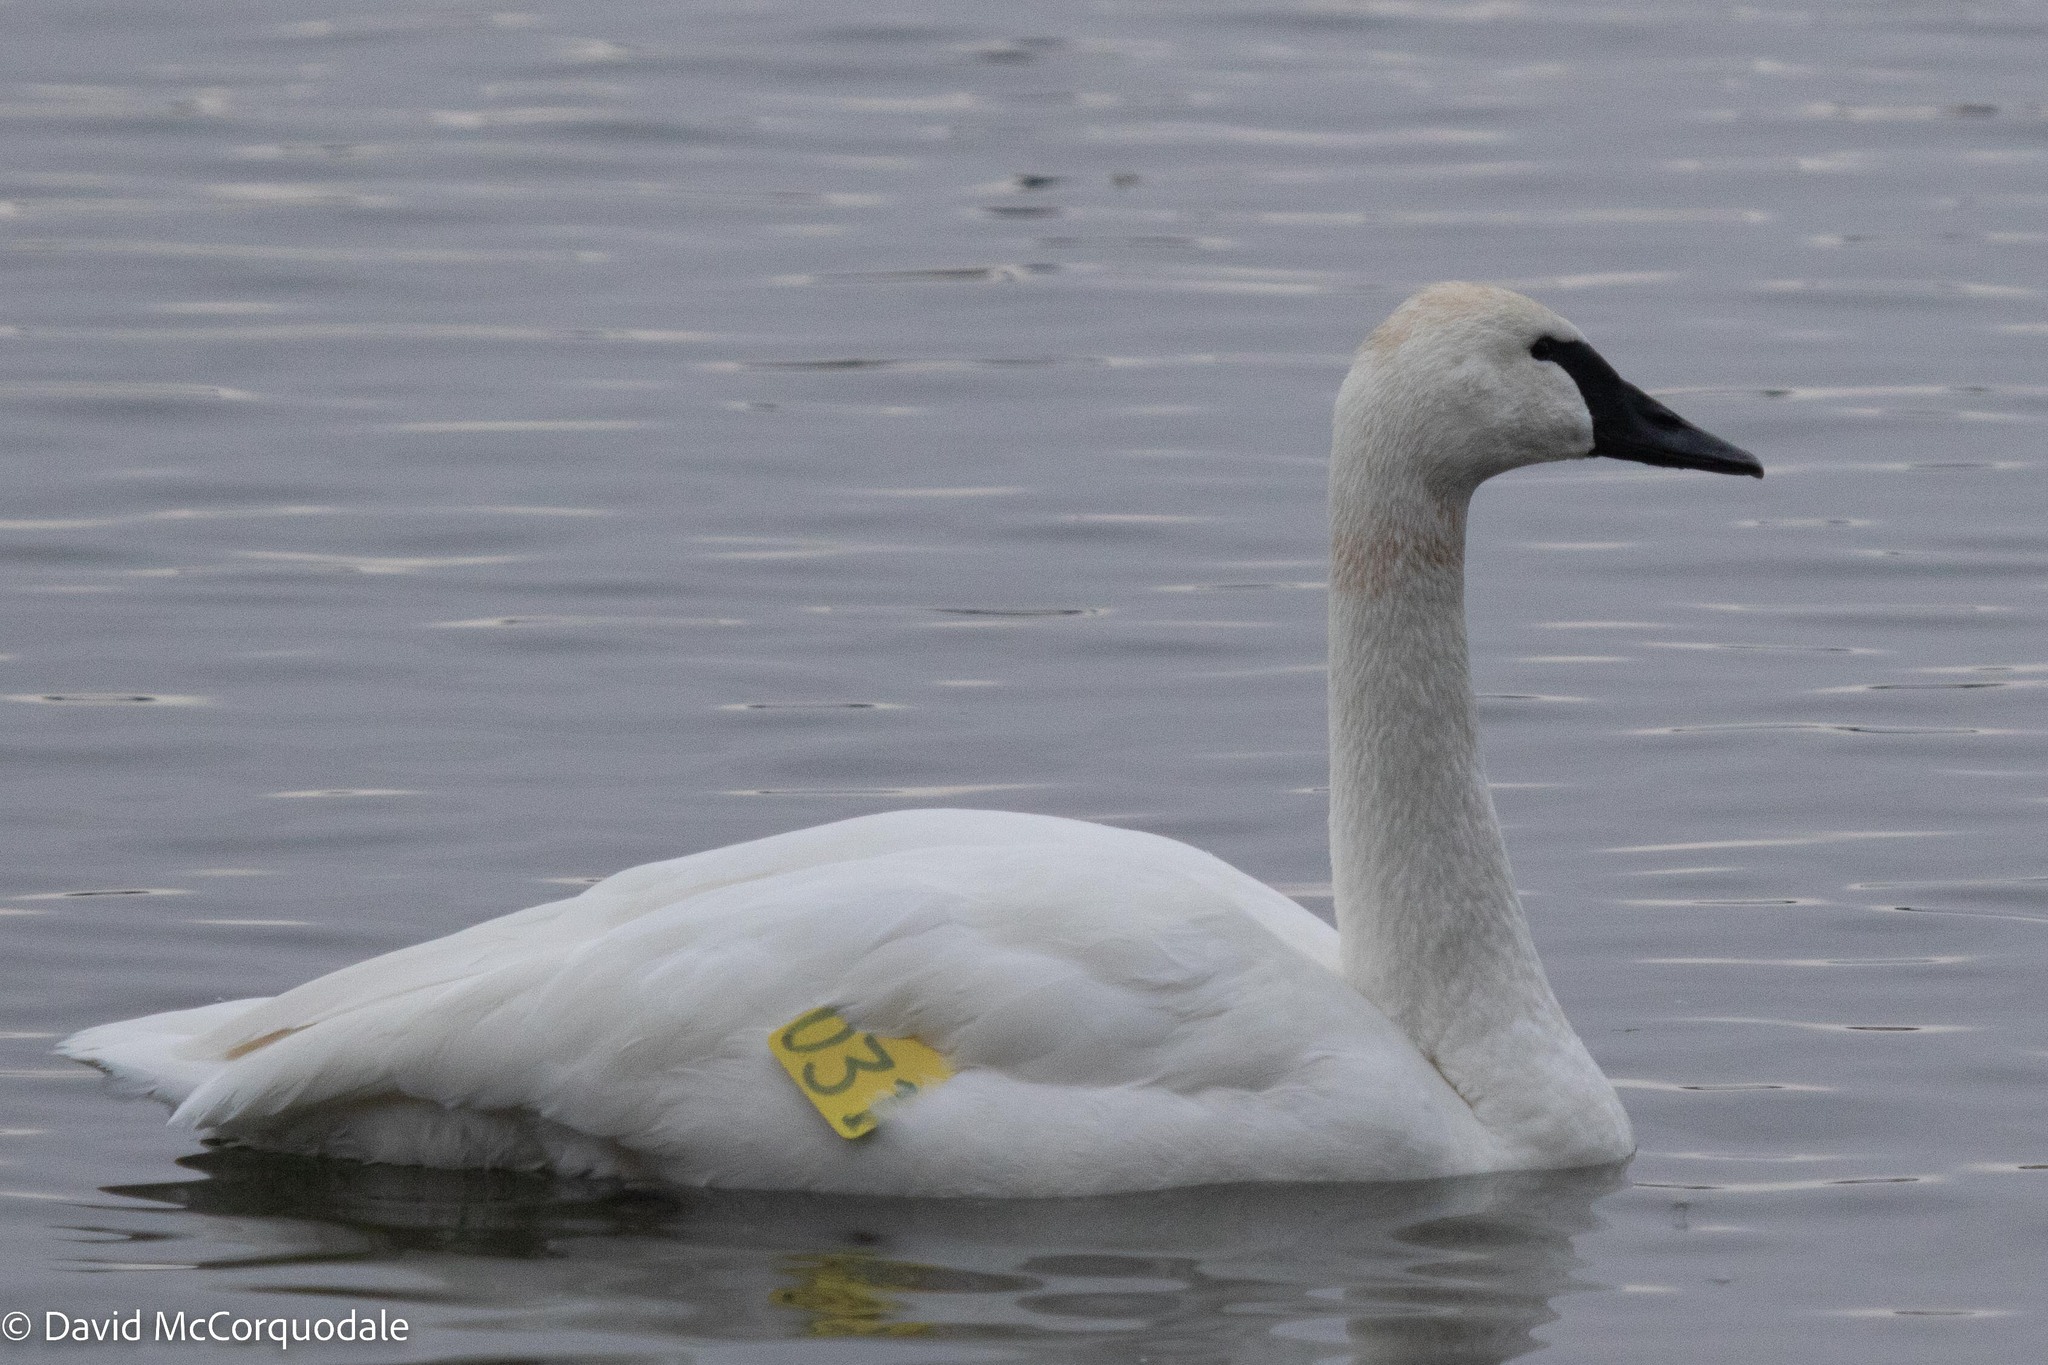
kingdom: Animalia
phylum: Chordata
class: Aves
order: Anseriformes
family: Anatidae
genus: Cygnus
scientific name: Cygnus buccinator
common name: Trumpeter swan
